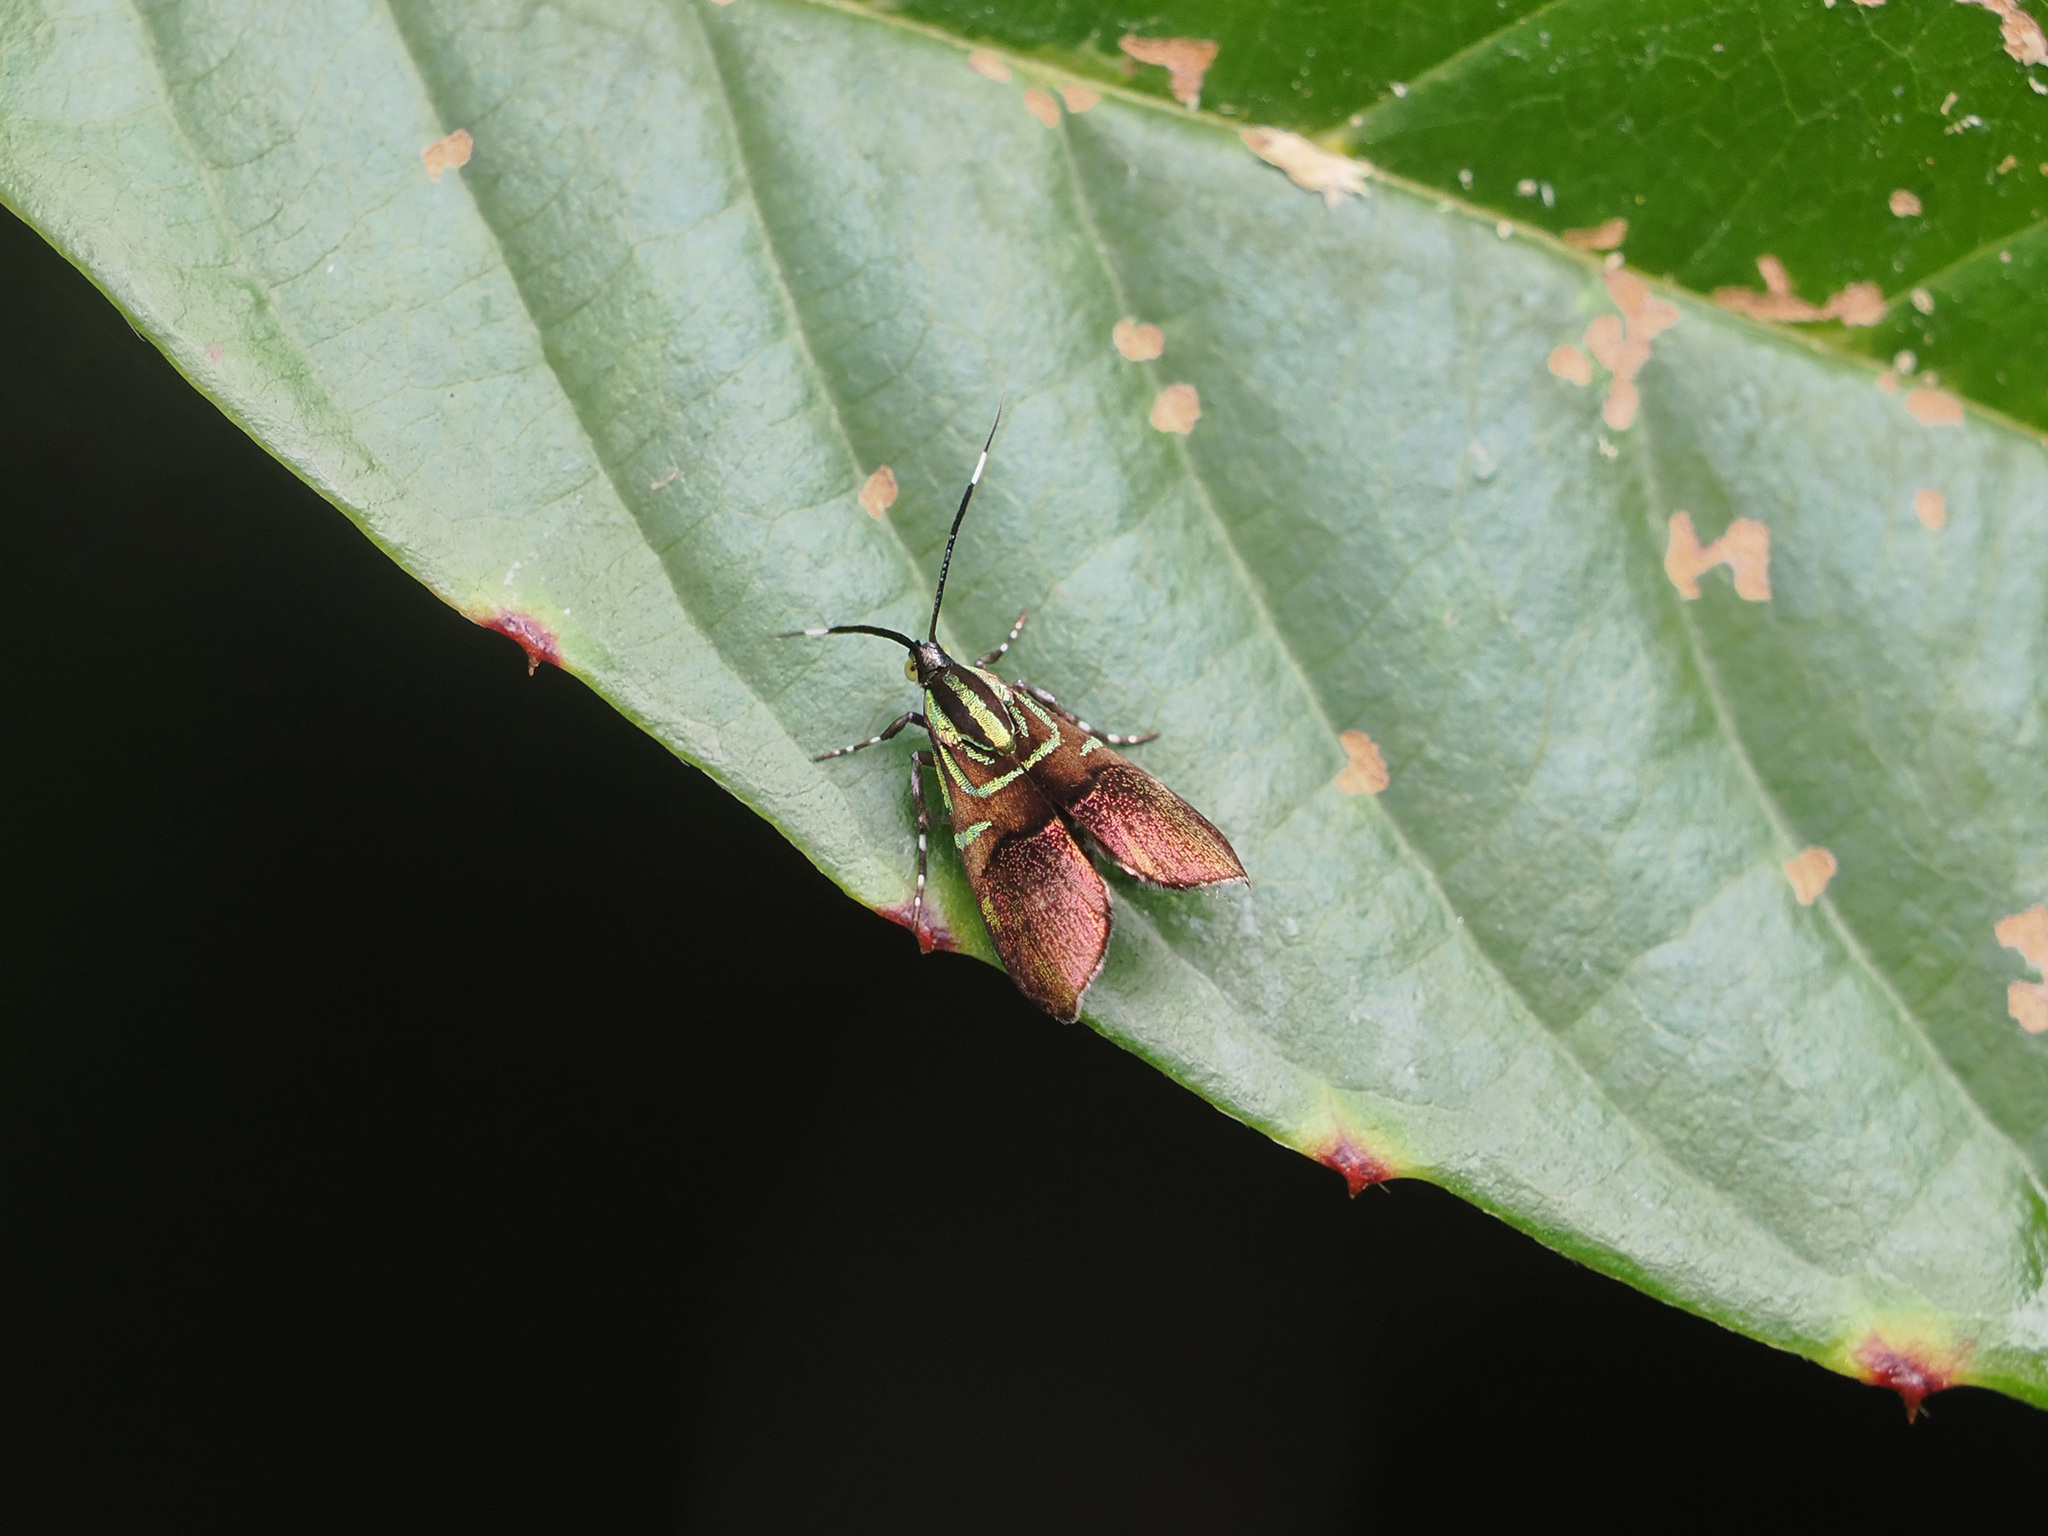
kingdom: Animalia
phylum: Arthropoda
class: Insecta
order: Lepidoptera
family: Choreutidae
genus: Saptha
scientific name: Saptha exanthista
